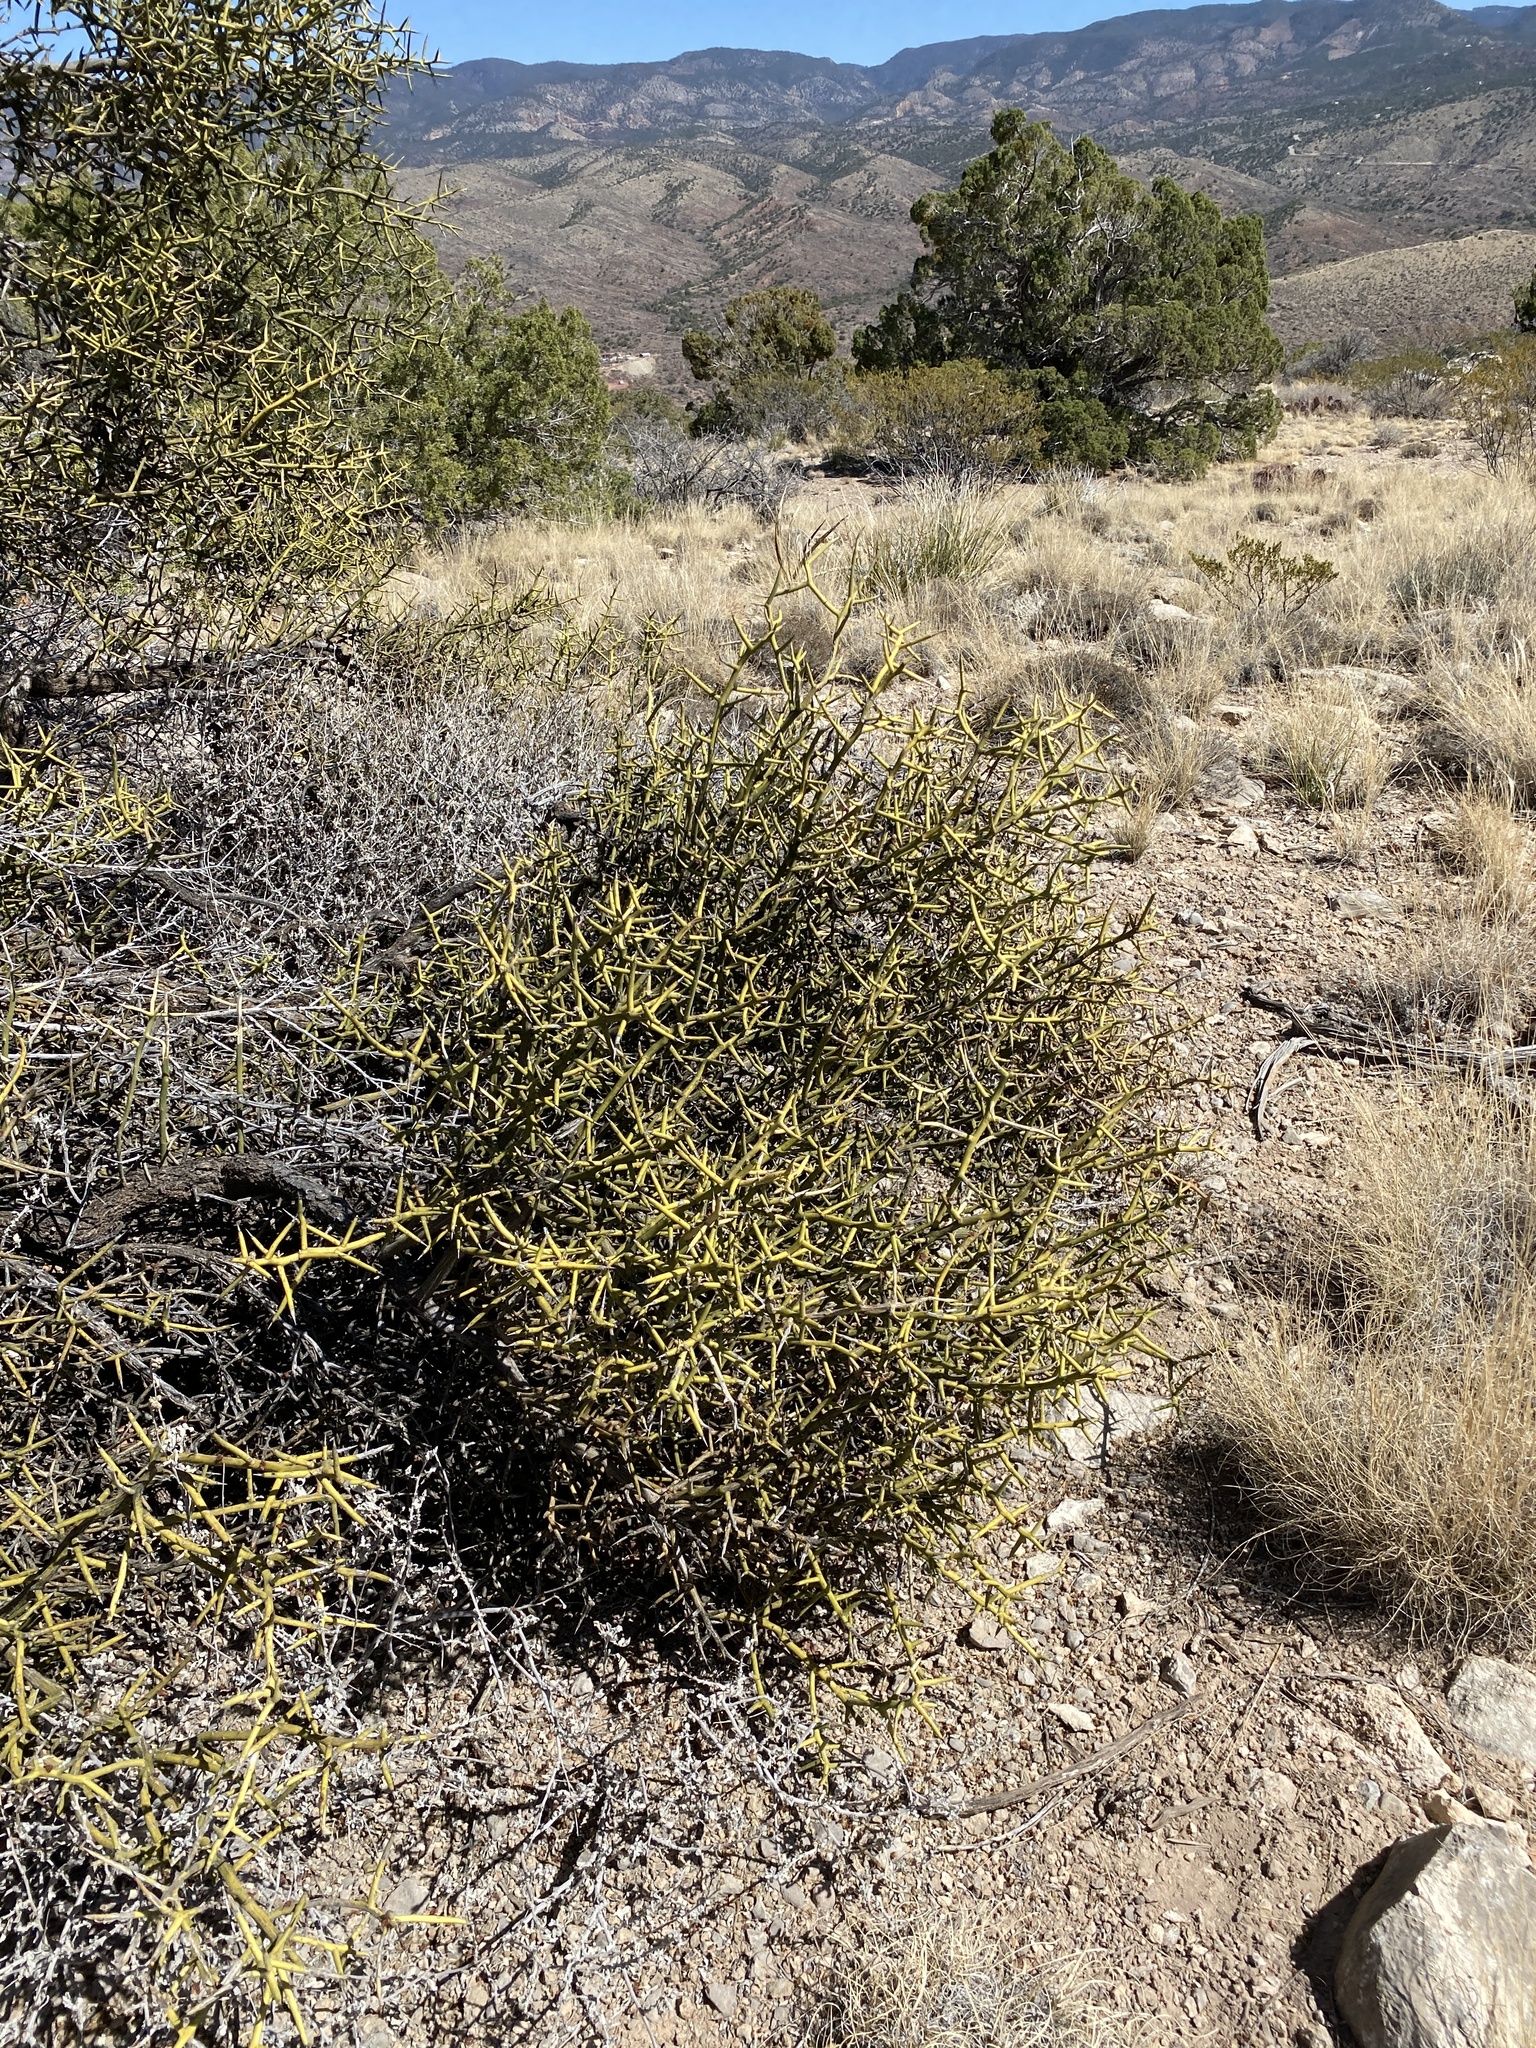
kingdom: Plantae
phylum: Tracheophyta
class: Magnoliopsida
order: Brassicales
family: Koeberliniaceae
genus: Koeberlinia
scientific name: Koeberlinia spinosa
